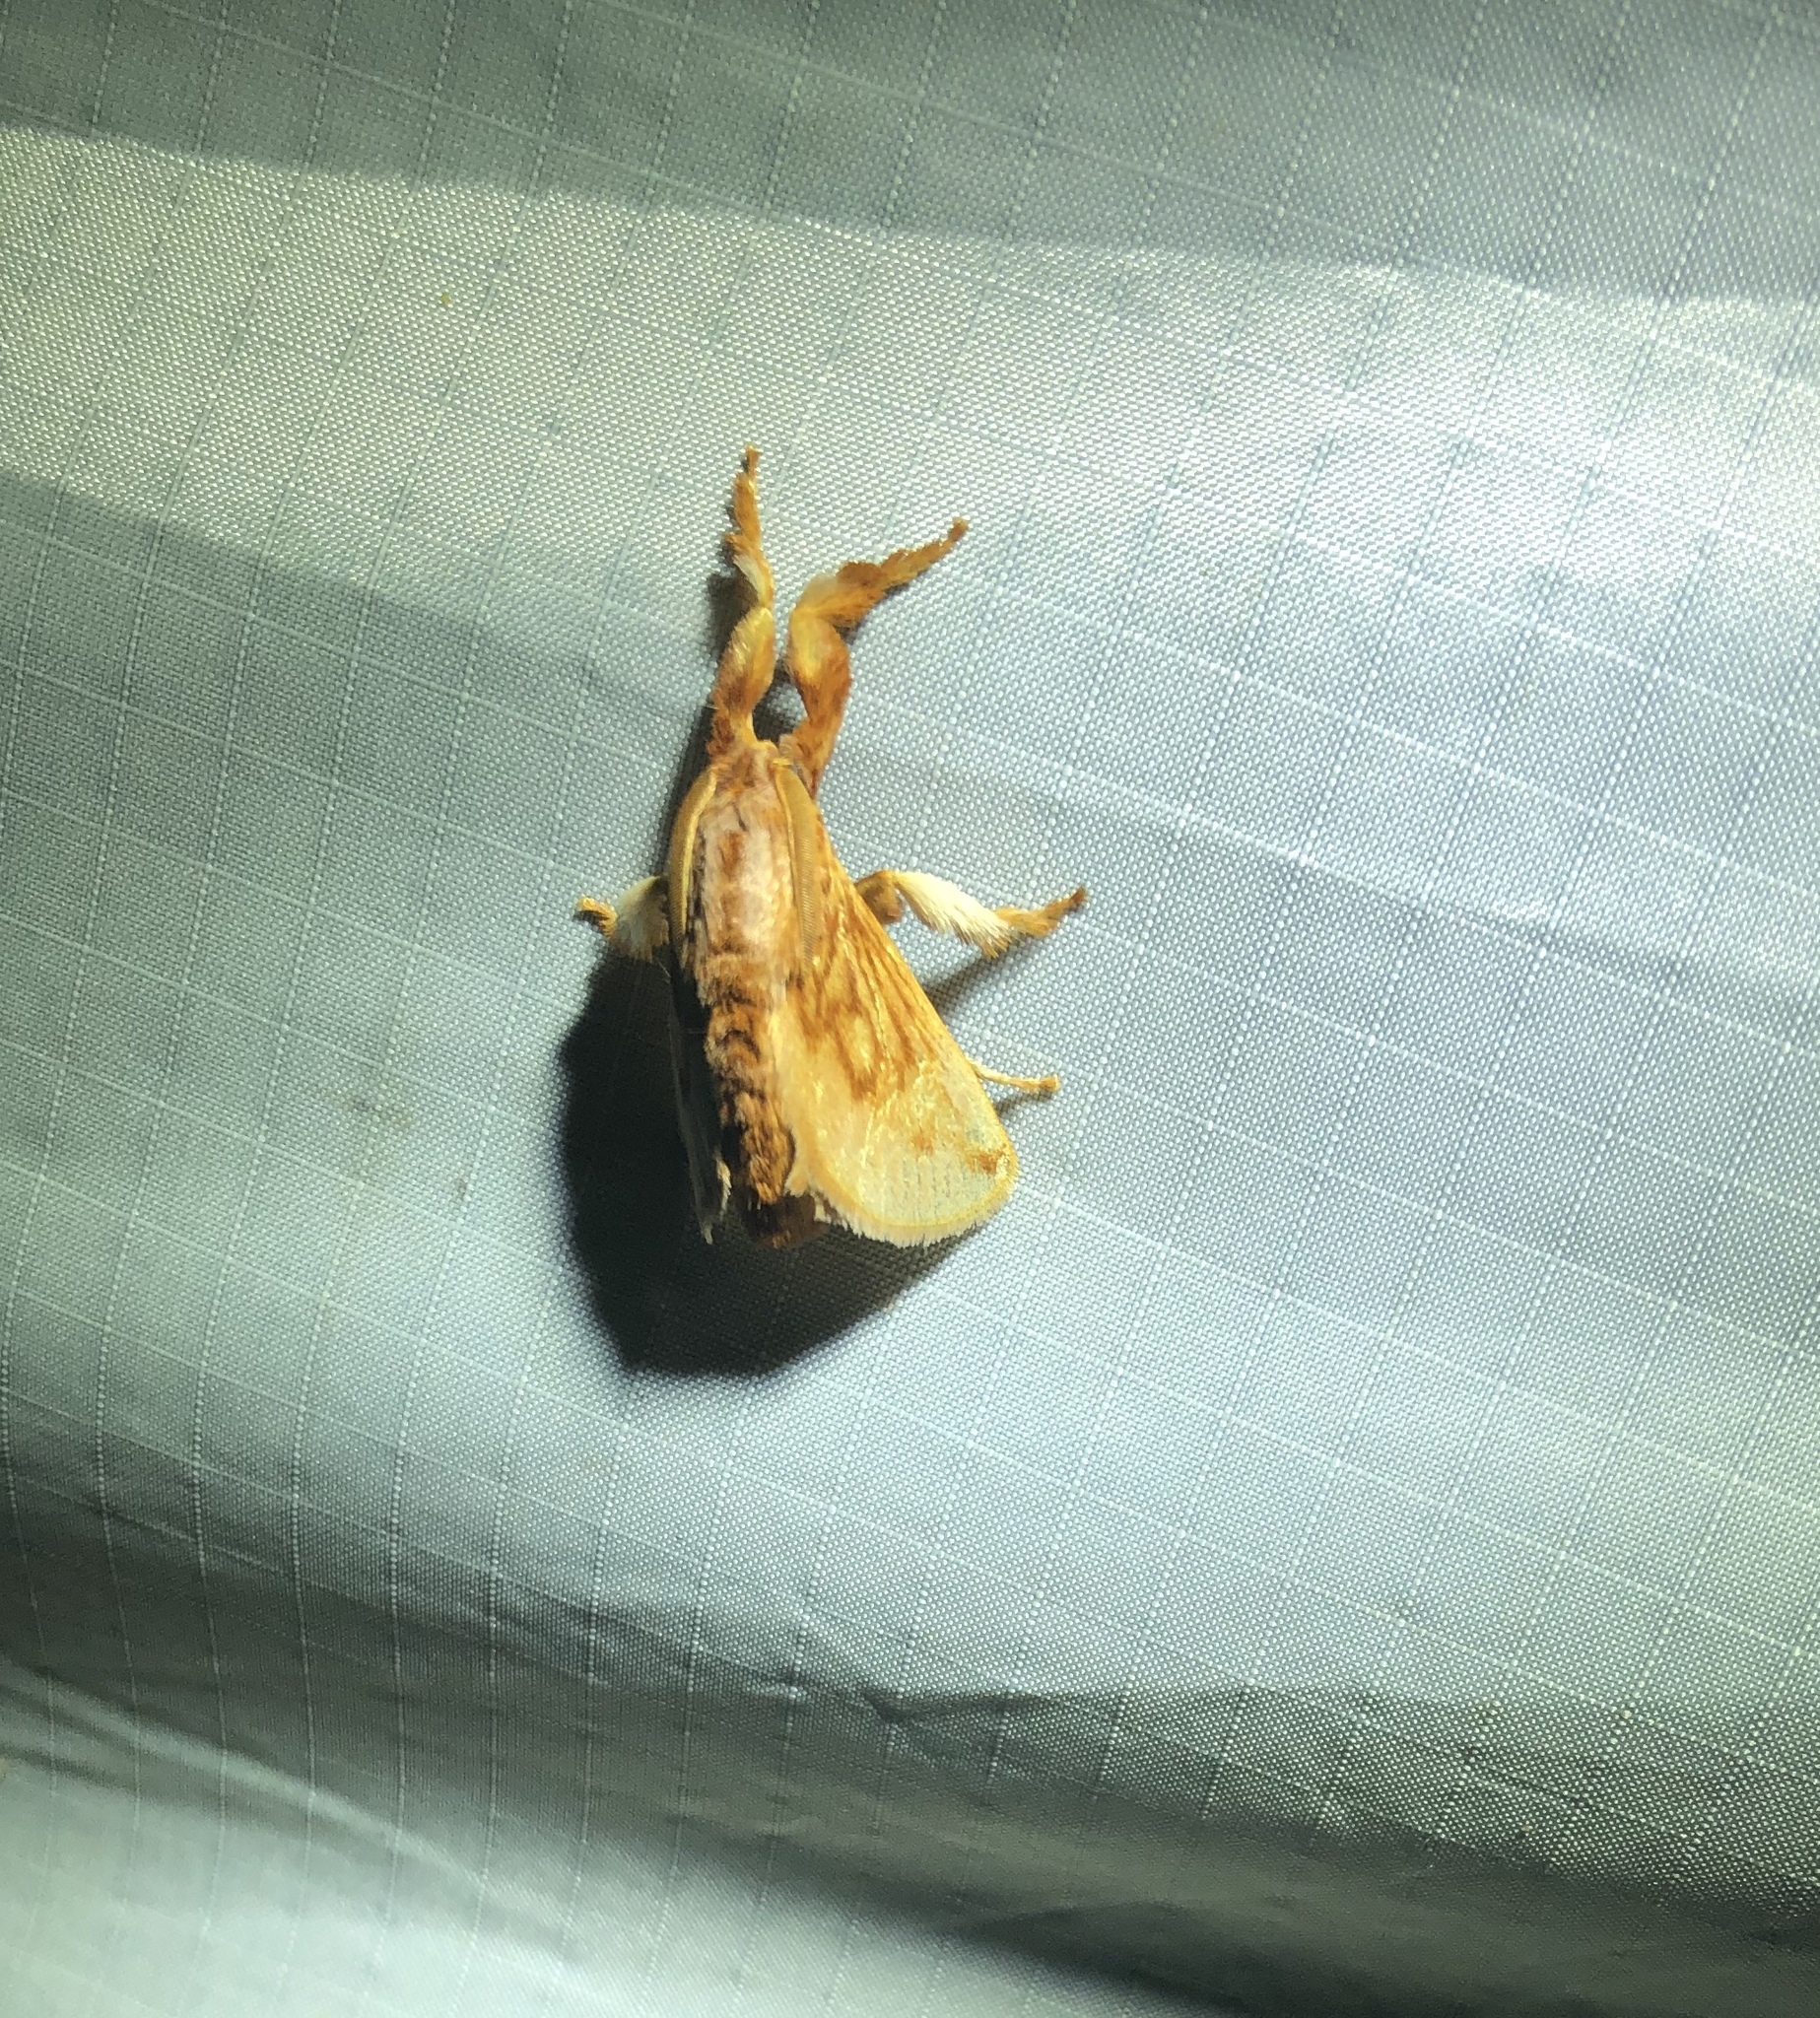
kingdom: Animalia
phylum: Arthropoda
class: Insecta
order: Lepidoptera
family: Limacodidae
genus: Perola
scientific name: Perola sericea
